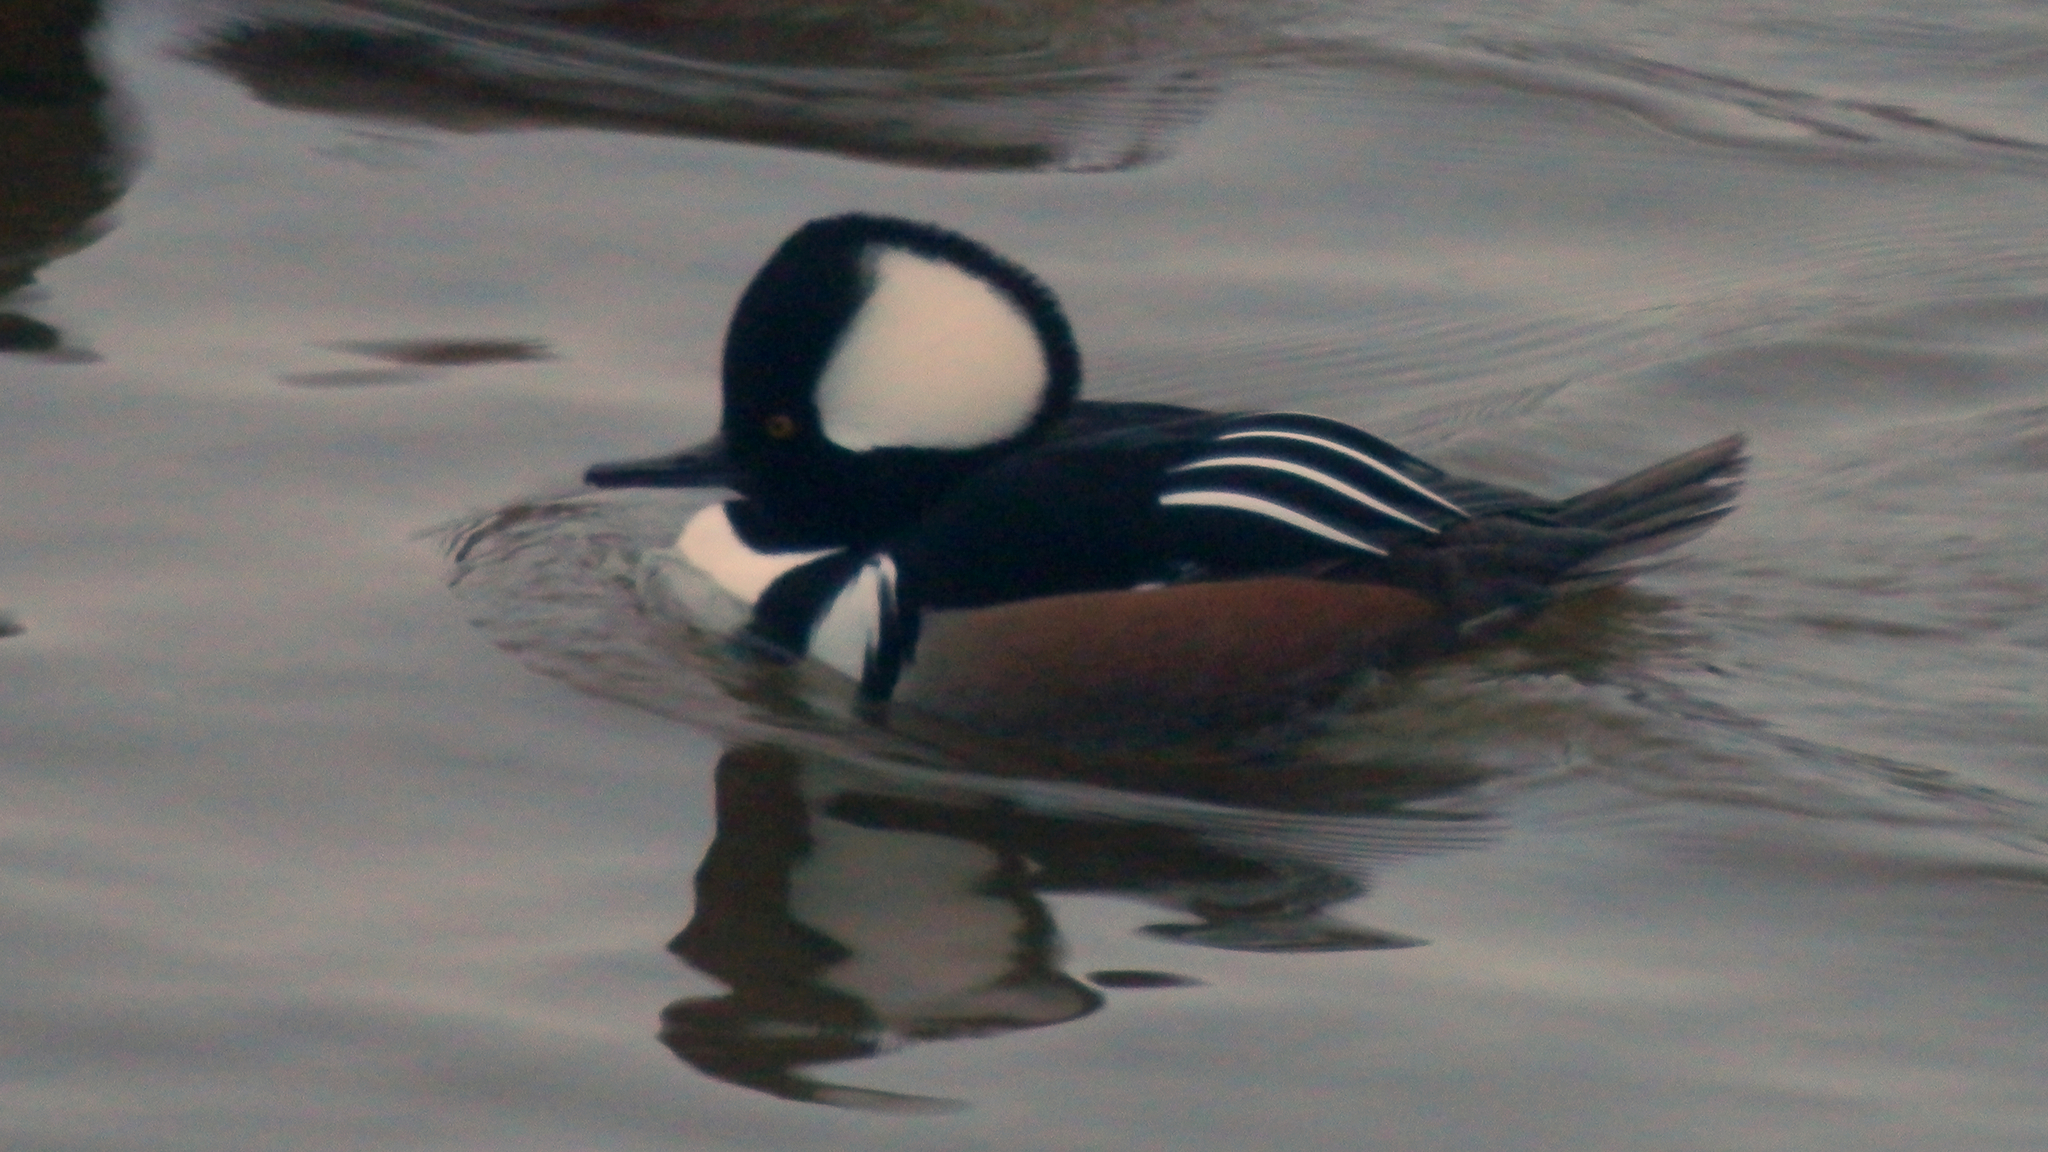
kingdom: Animalia
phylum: Chordata
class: Aves
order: Anseriformes
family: Anatidae
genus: Lophodytes
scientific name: Lophodytes cucullatus
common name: Hooded merganser
